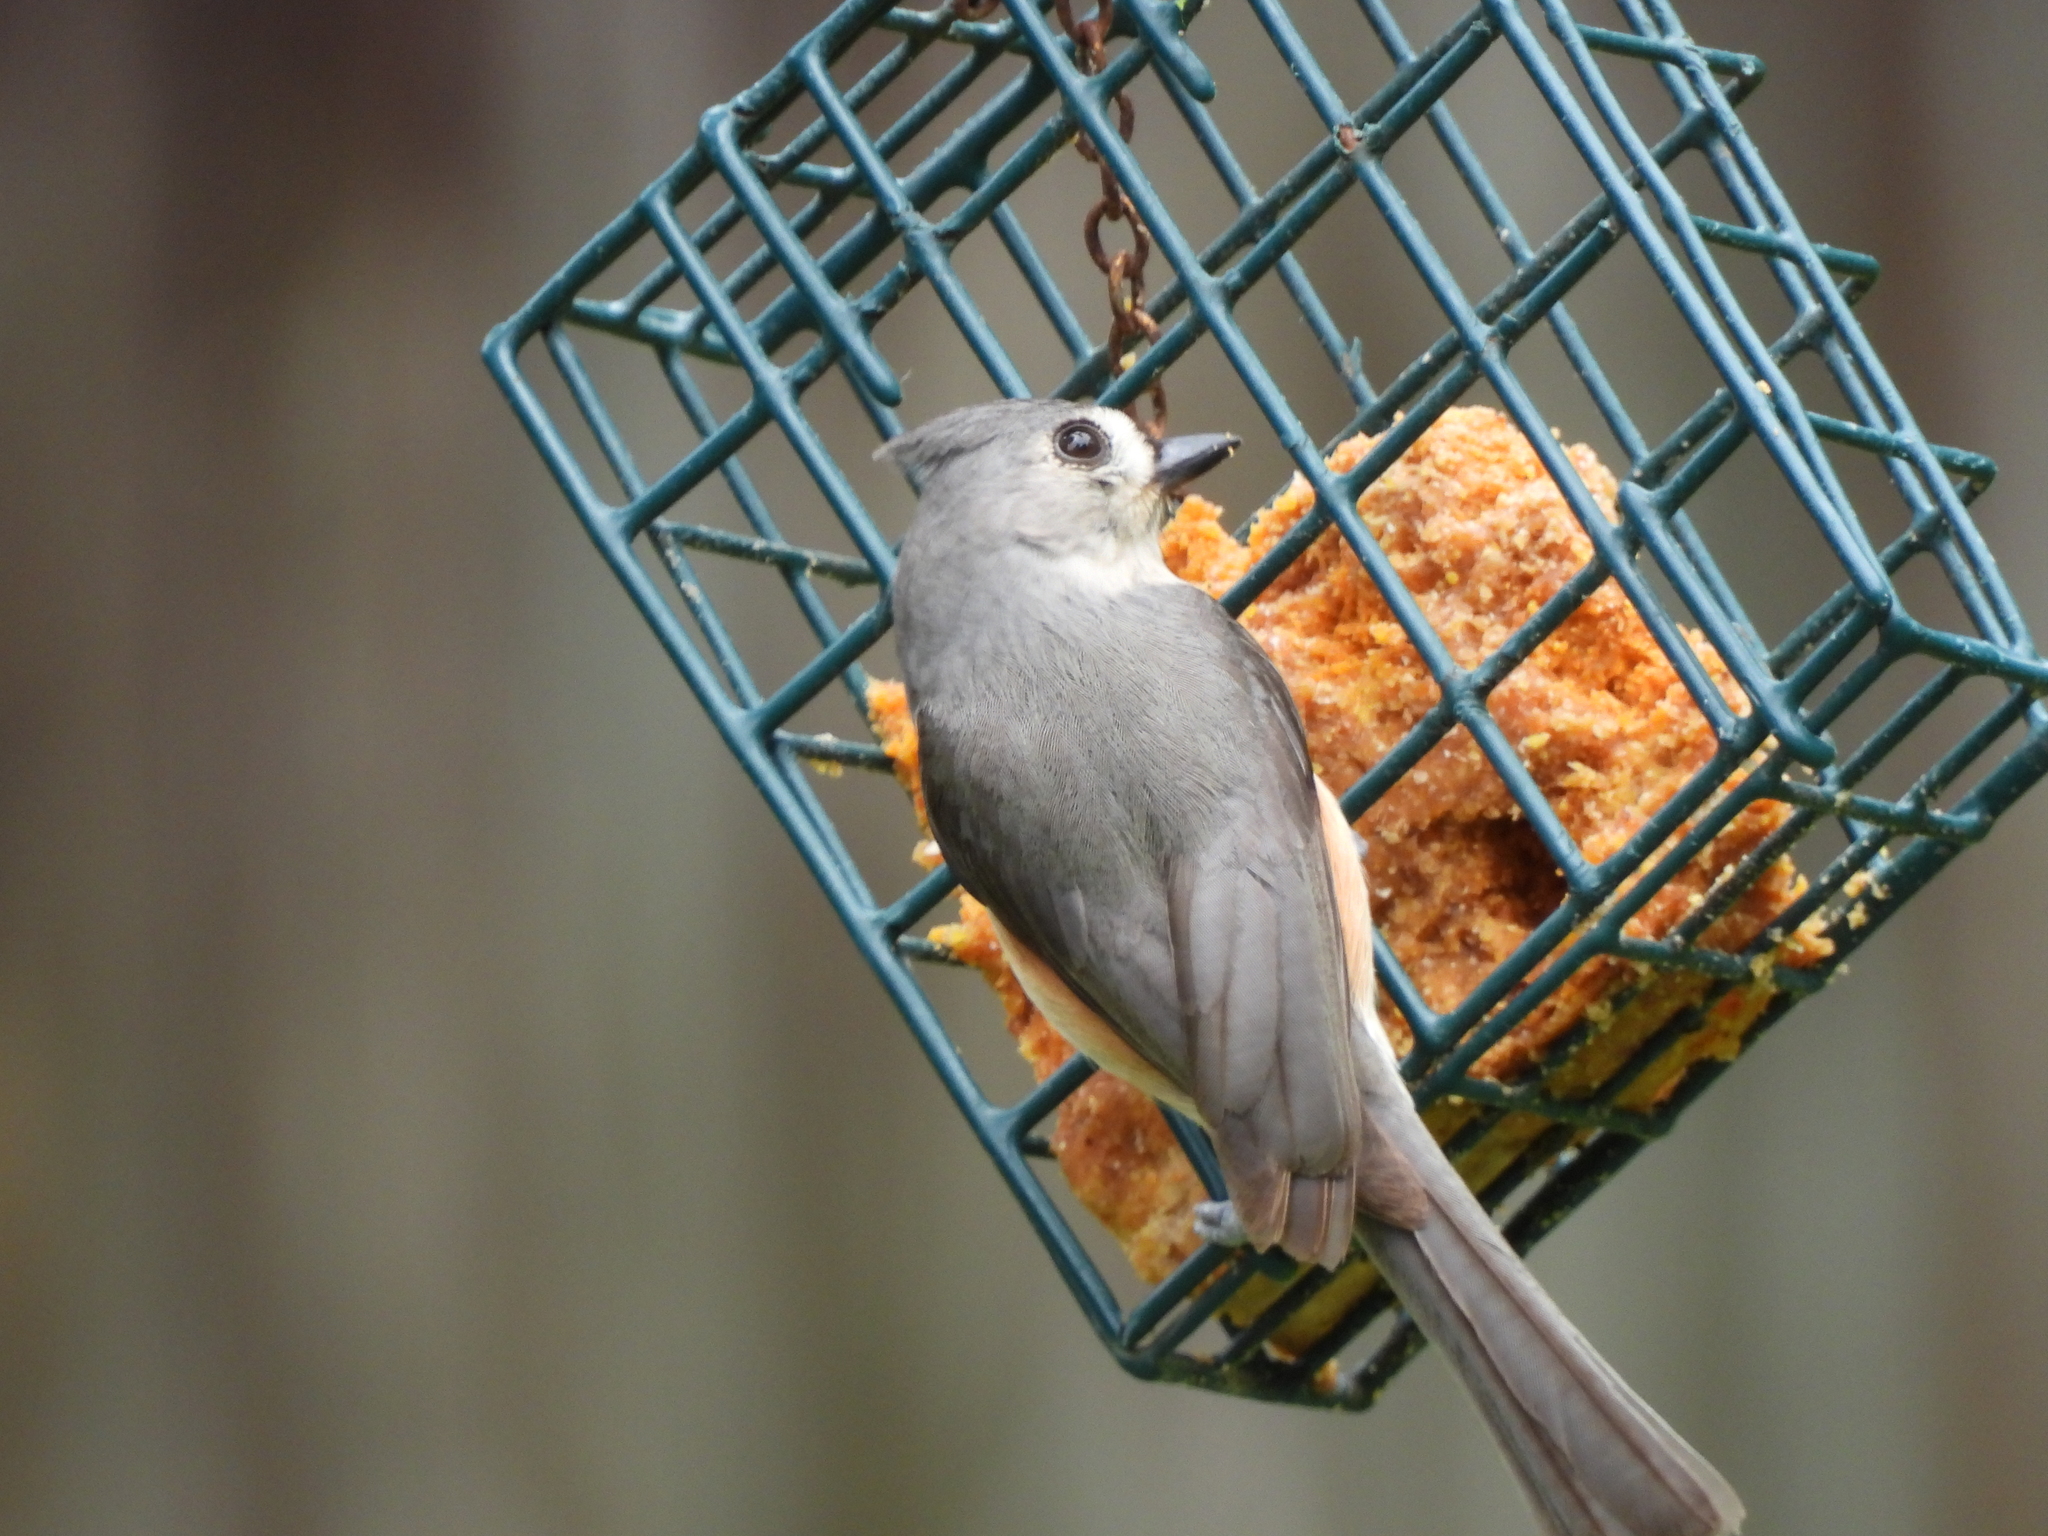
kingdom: Animalia
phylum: Chordata
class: Aves
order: Passeriformes
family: Paridae
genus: Baeolophus
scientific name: Baeolophus bicolor
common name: Tufted titmouse
